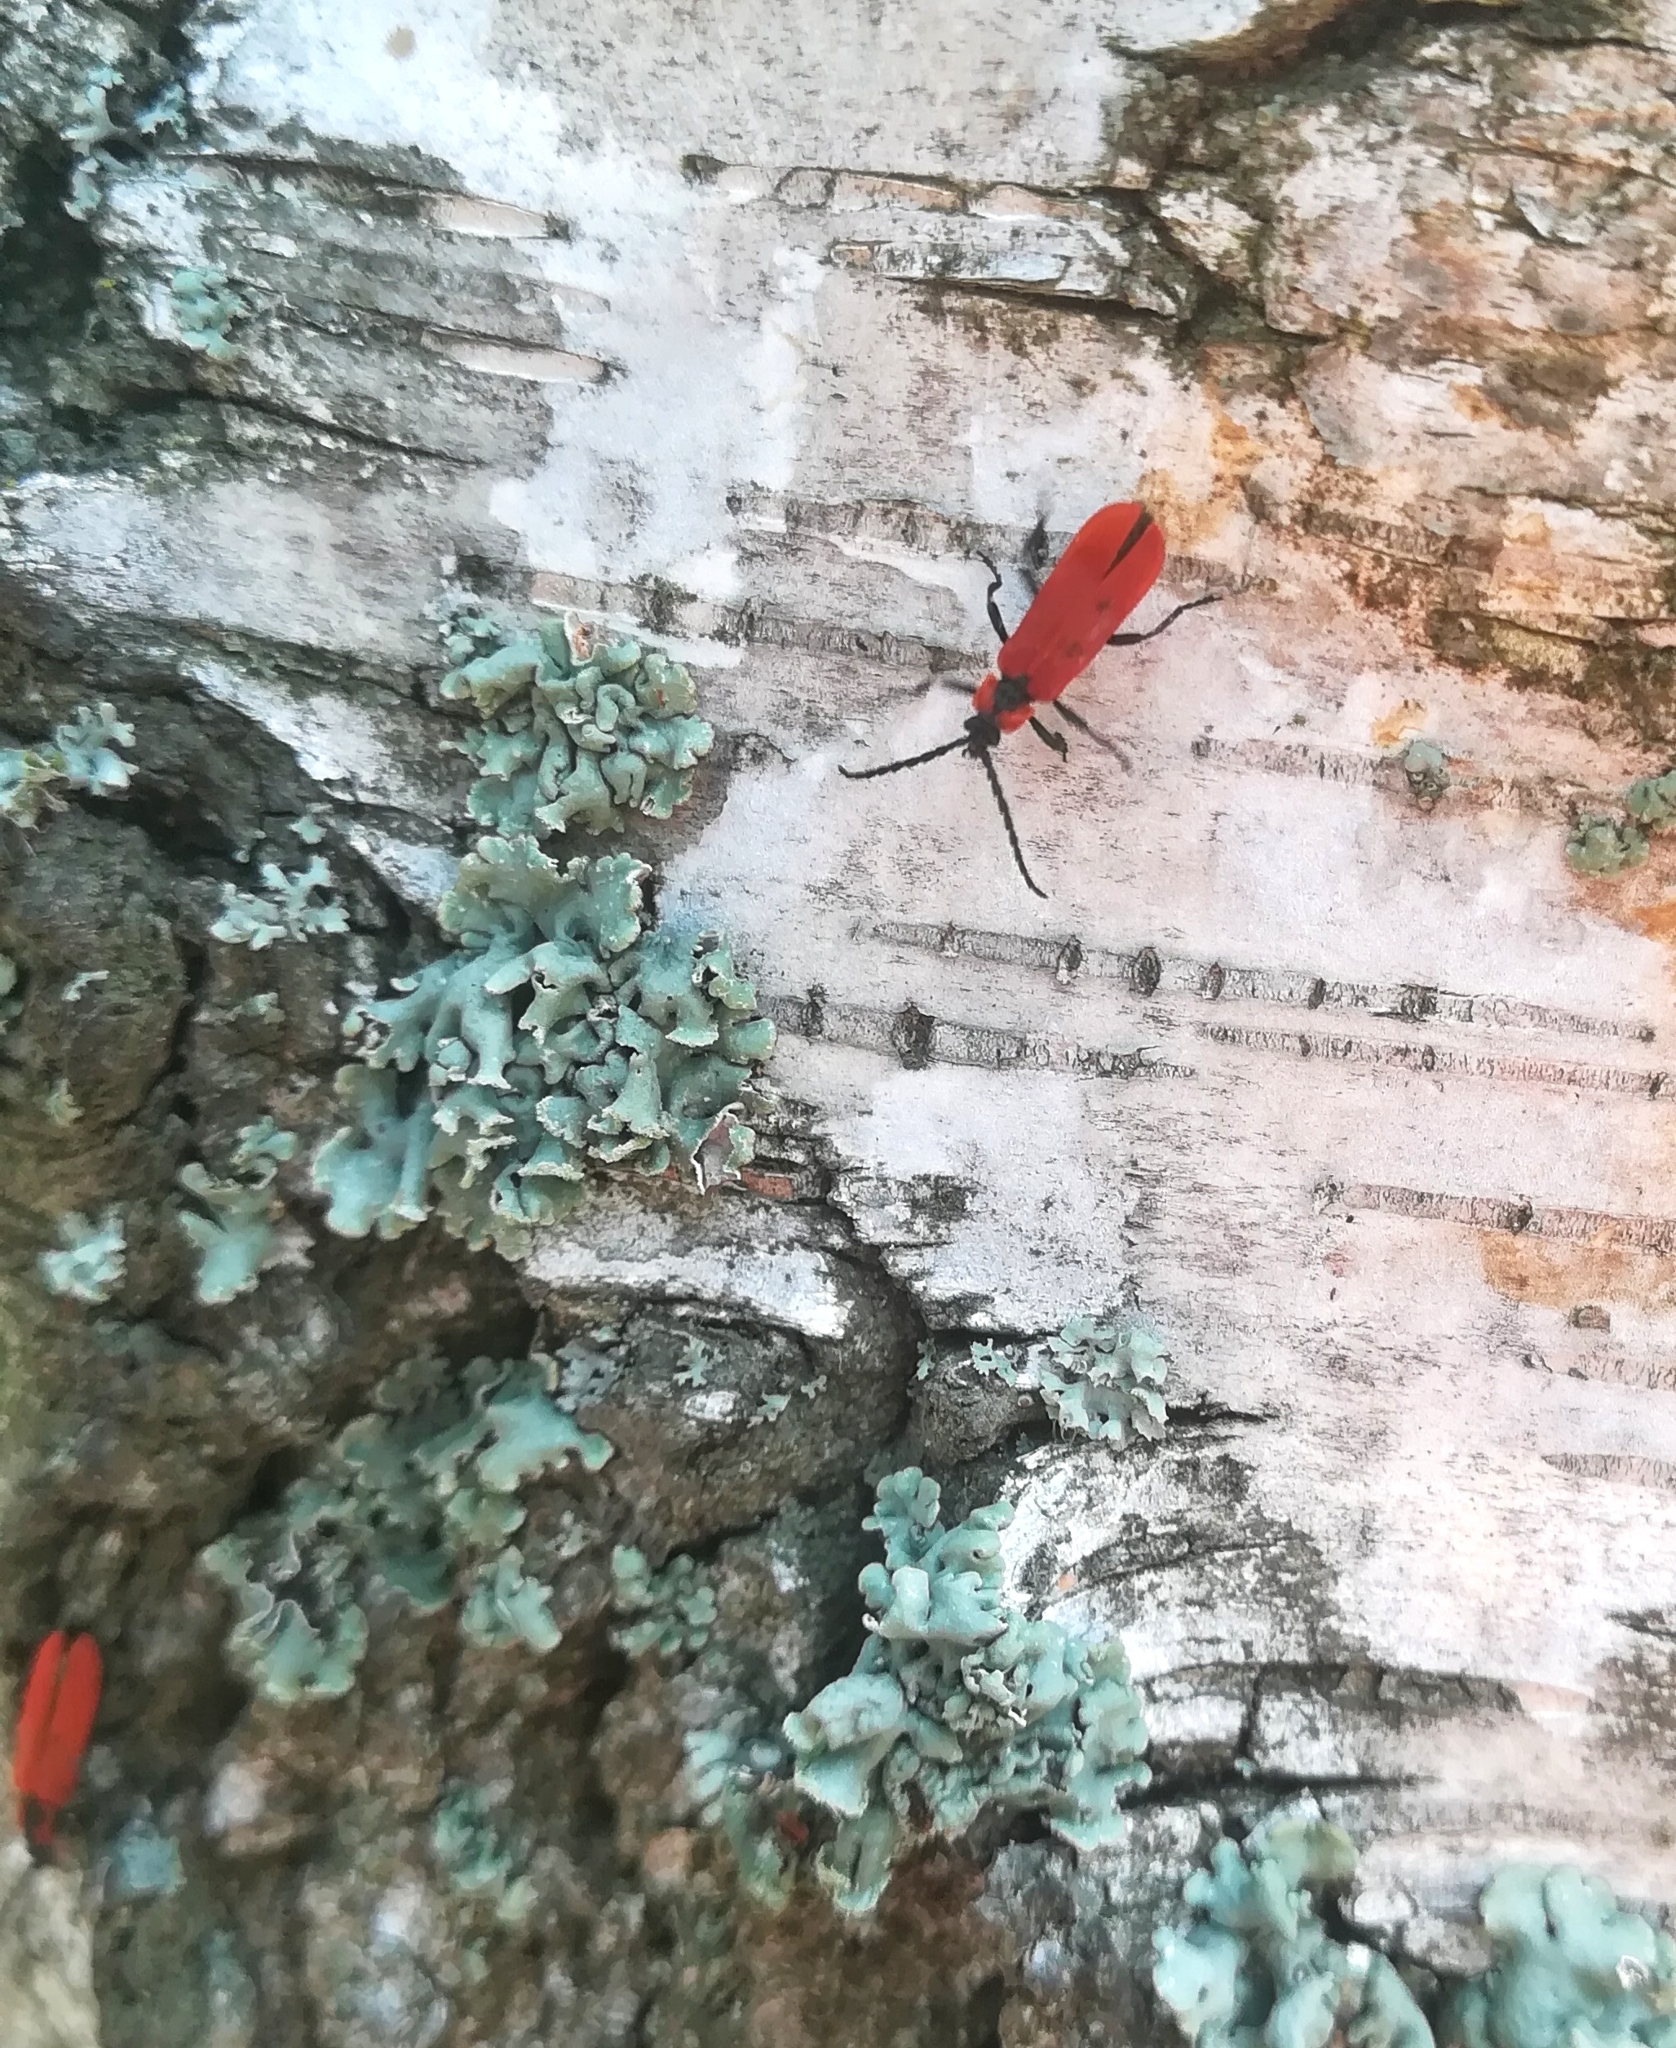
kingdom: Animalia
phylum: Arthropoda
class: Insecta
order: Coleoptera
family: Lycidae
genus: Lygistopterus
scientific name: Lygistopterus sanguineus
